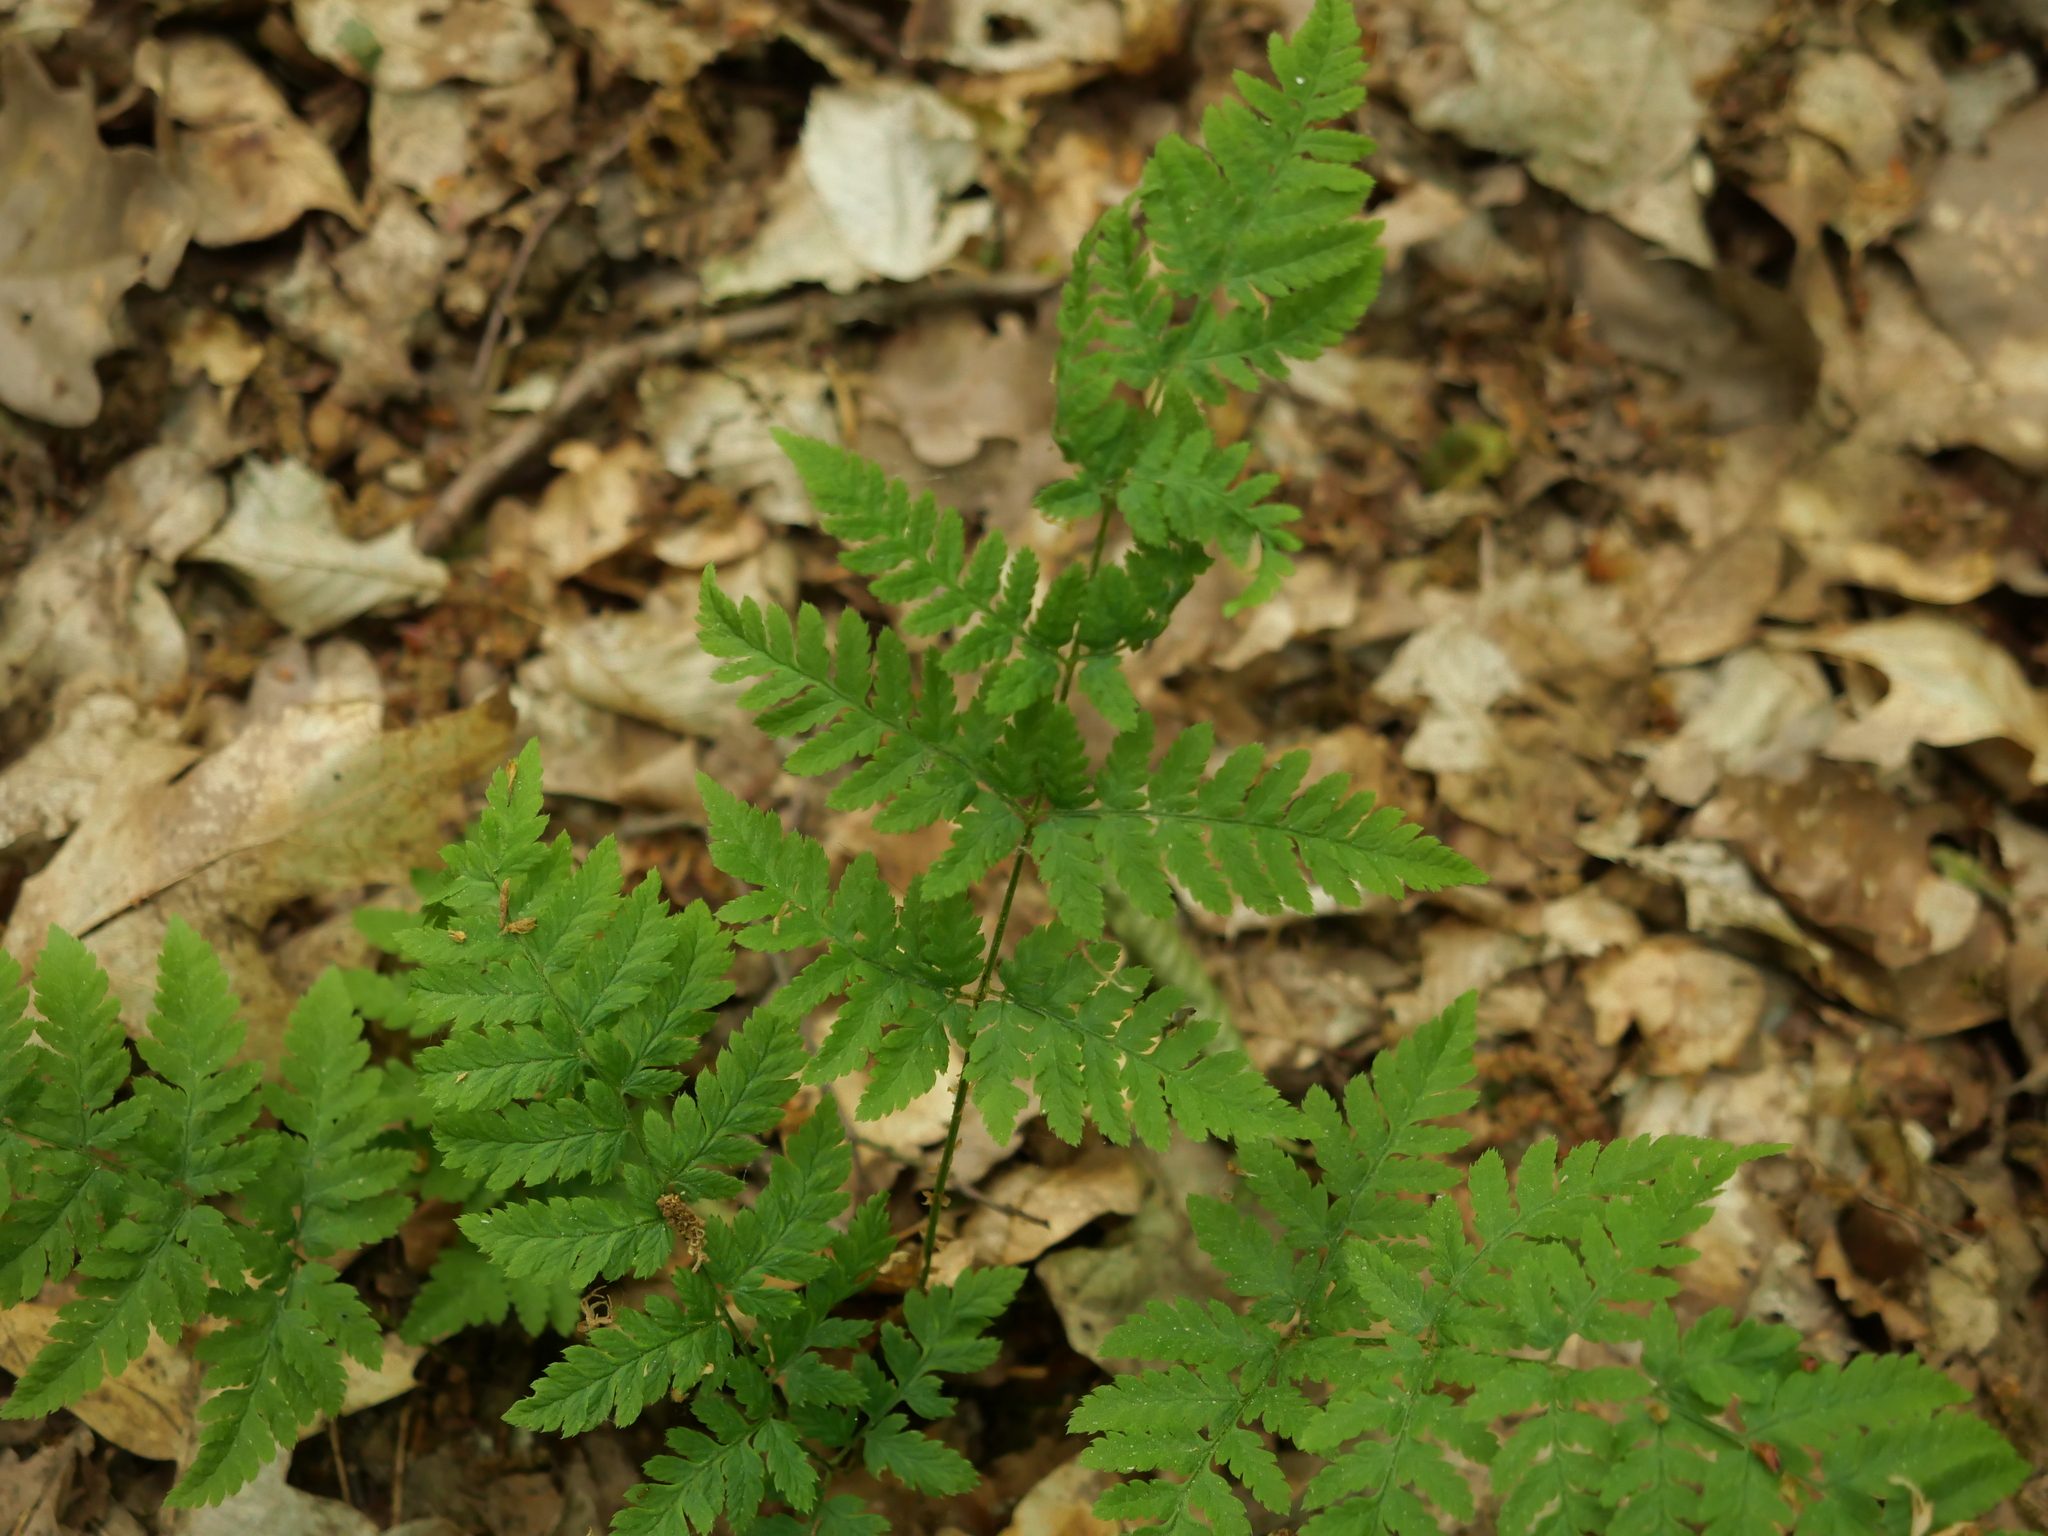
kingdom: Plantae
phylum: Tracheophyta
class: Polypodiopsida
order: Polypodiales
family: Dryopteridaceae
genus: Dryopteris
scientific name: Dryopteris carthusiana
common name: Narrow buckler-fern
